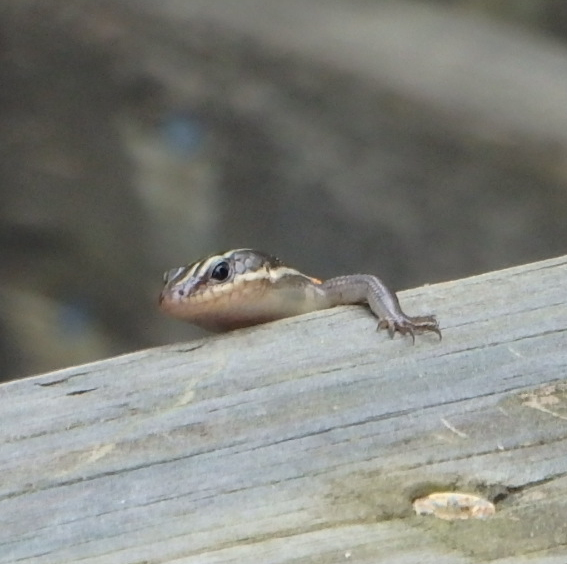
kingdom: Animalia
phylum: Chordata
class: Squamata
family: Scincidae
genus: Plestiodon
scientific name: Plestiodon fasciatus
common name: Five-lined skink
